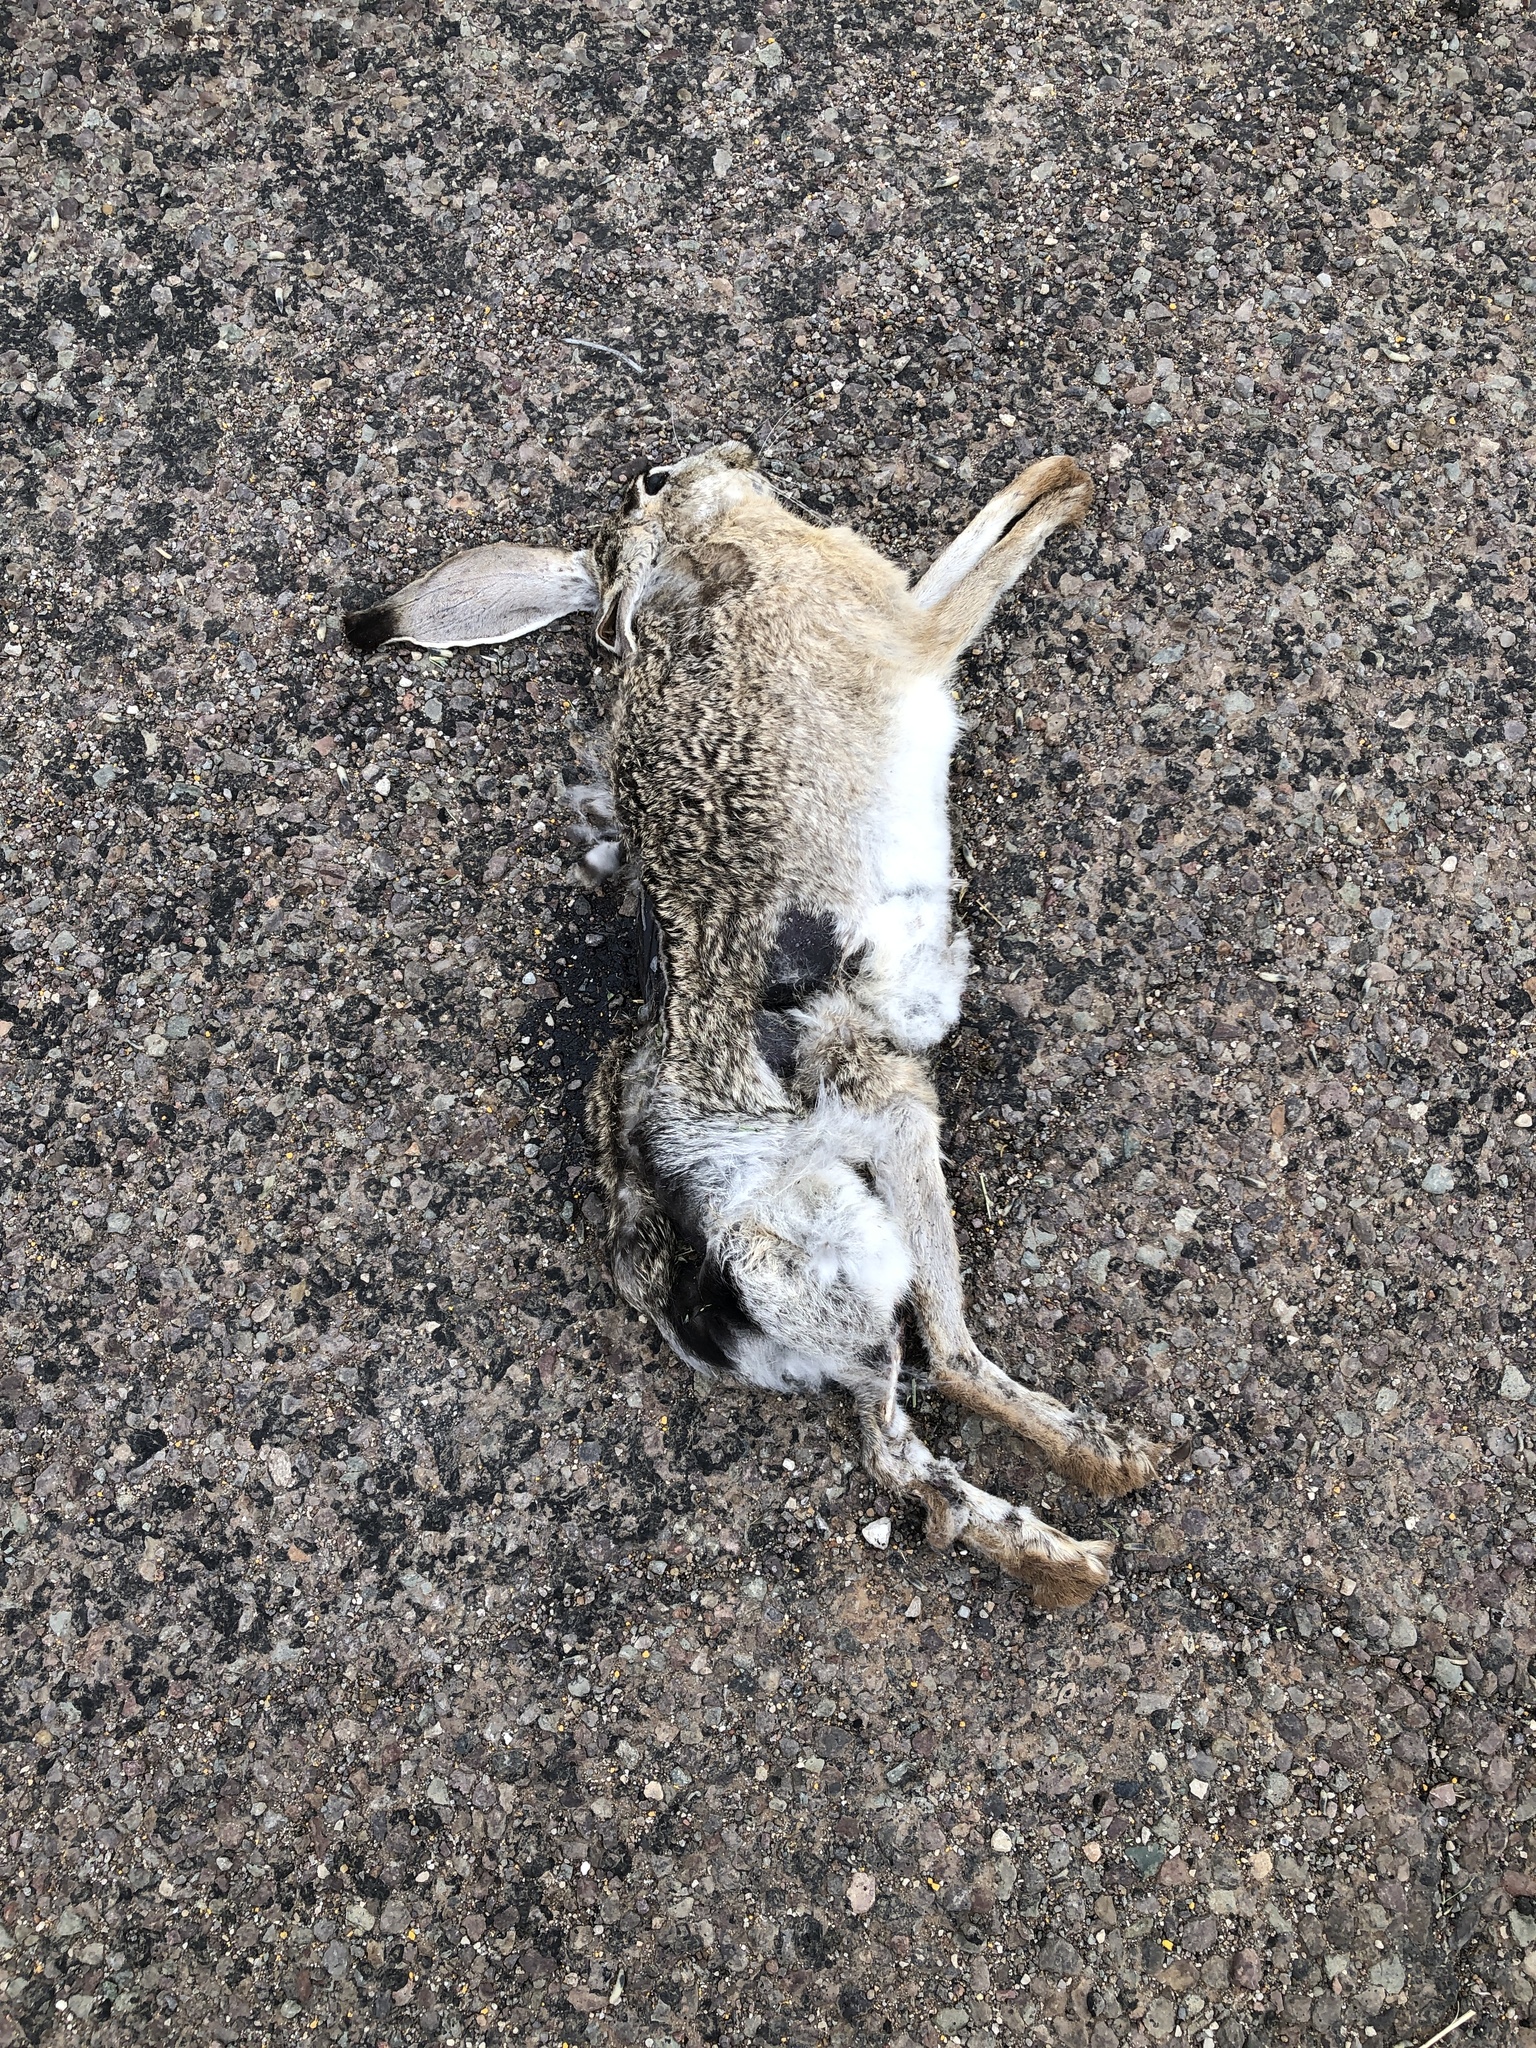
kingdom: Animalia
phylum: Chordata
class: Mammalia
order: Lagomorpha
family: Leporidae
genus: Lepus
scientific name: Lepus californicus
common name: Black-tailed jackrabbit
